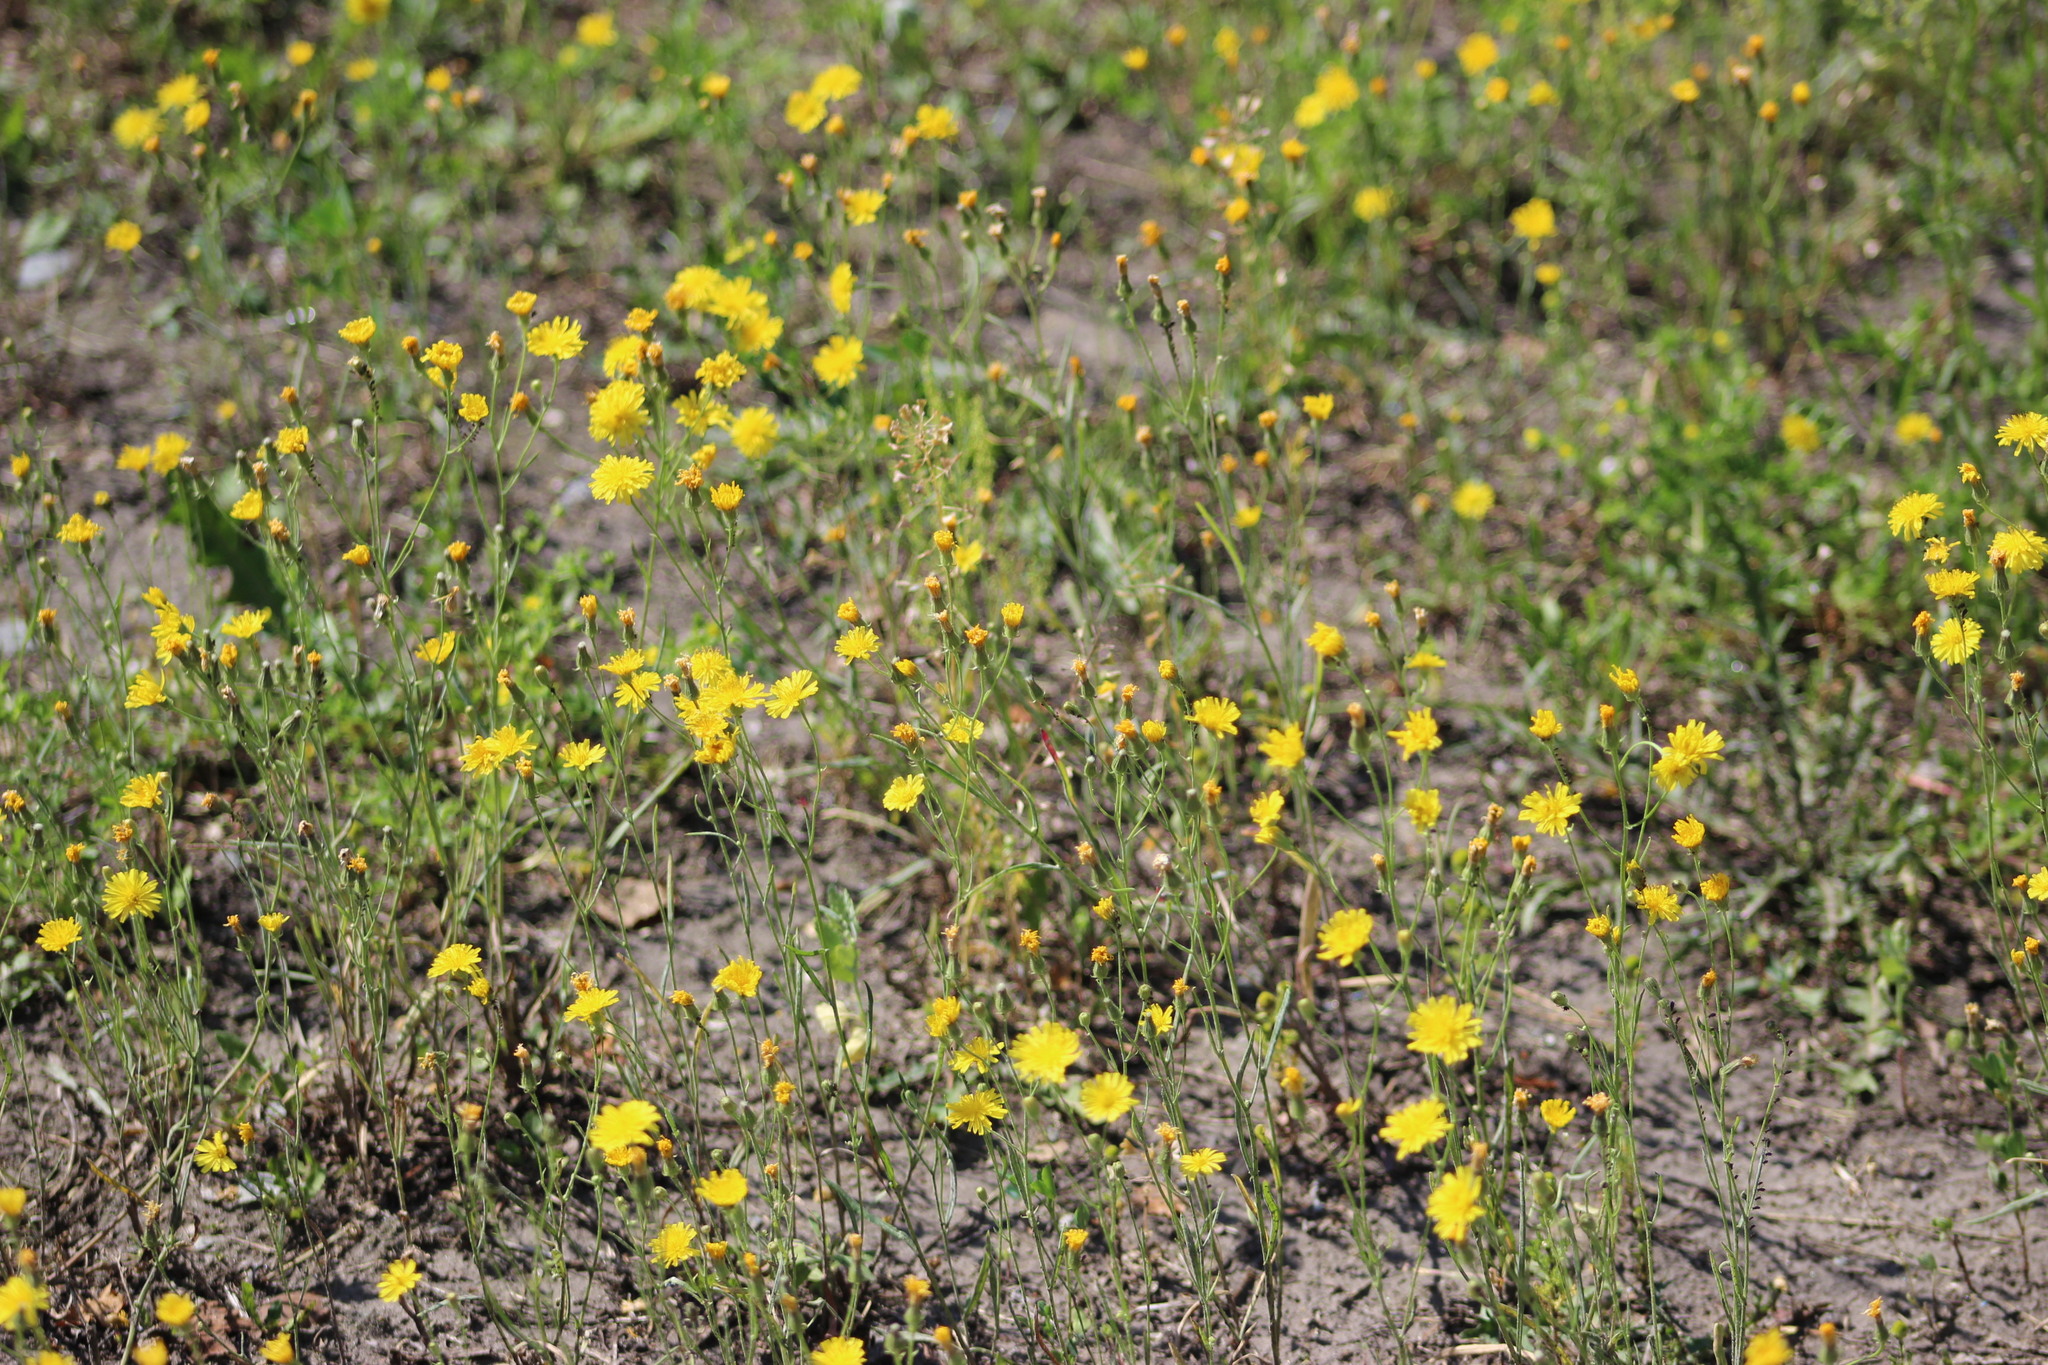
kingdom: Plantae
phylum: Tracheophyta
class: Magnoliopsida
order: Asterales
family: Asteraceae
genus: Crepis
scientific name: Crepis tectorum
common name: Narrow-leaved hawk's-beard
